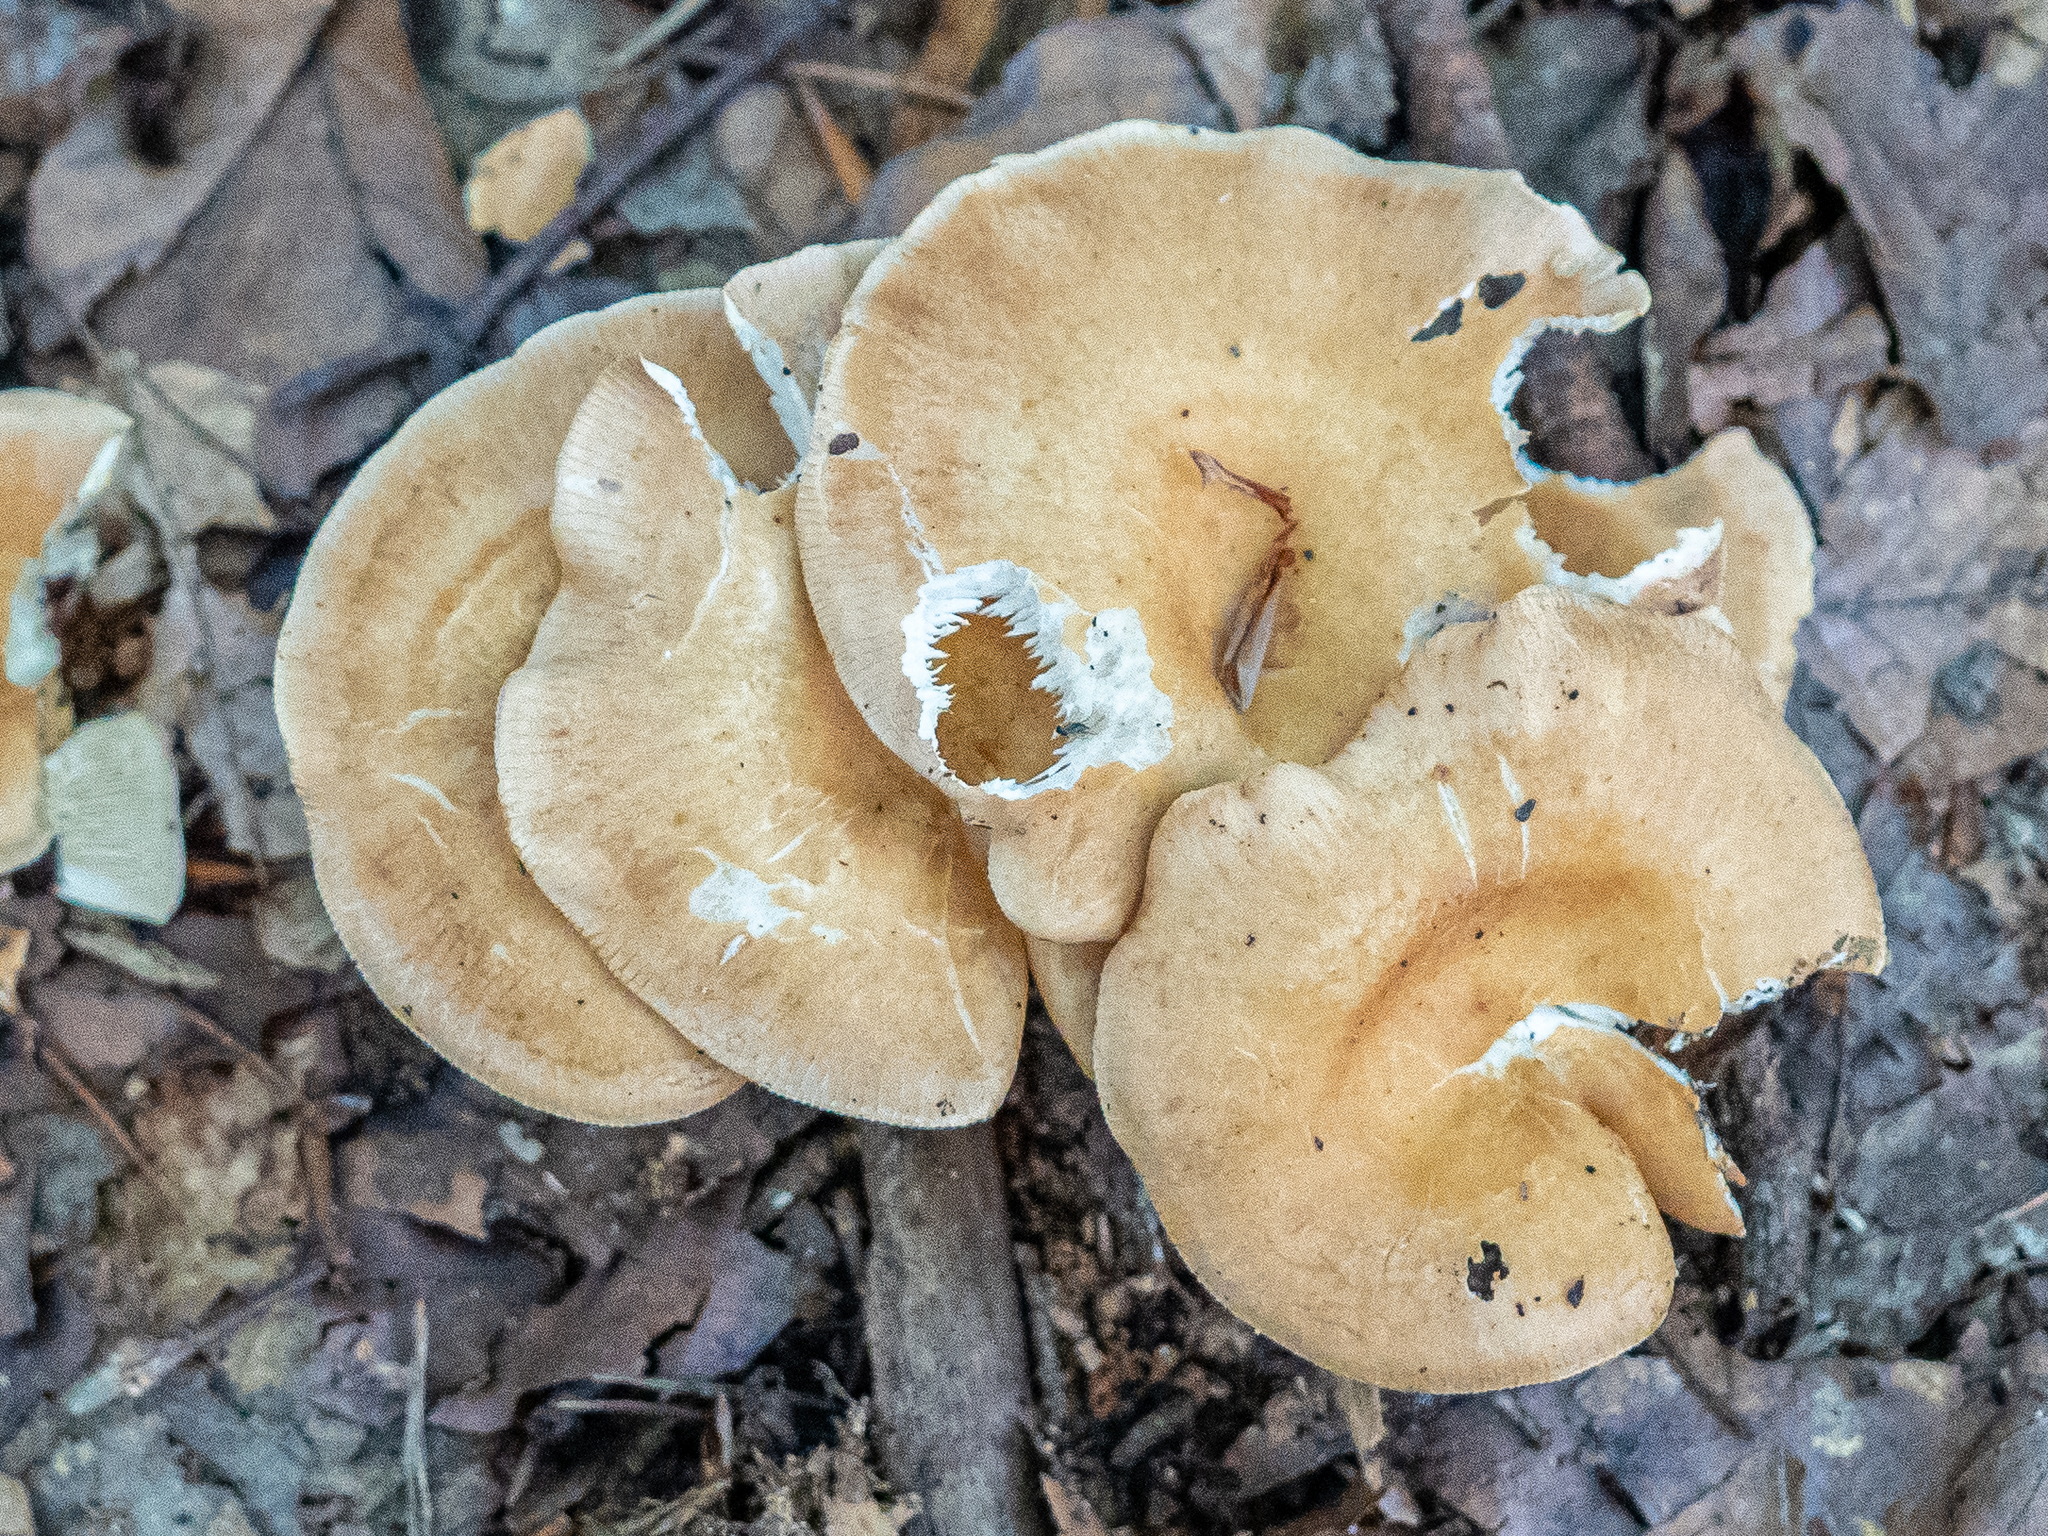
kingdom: Fungi
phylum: Basidiomycota
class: Agaricomycetes
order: Agaricales
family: Tricholomataceae
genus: Infundibulicybe
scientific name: Infundibulicybe gibba
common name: Common funnel
